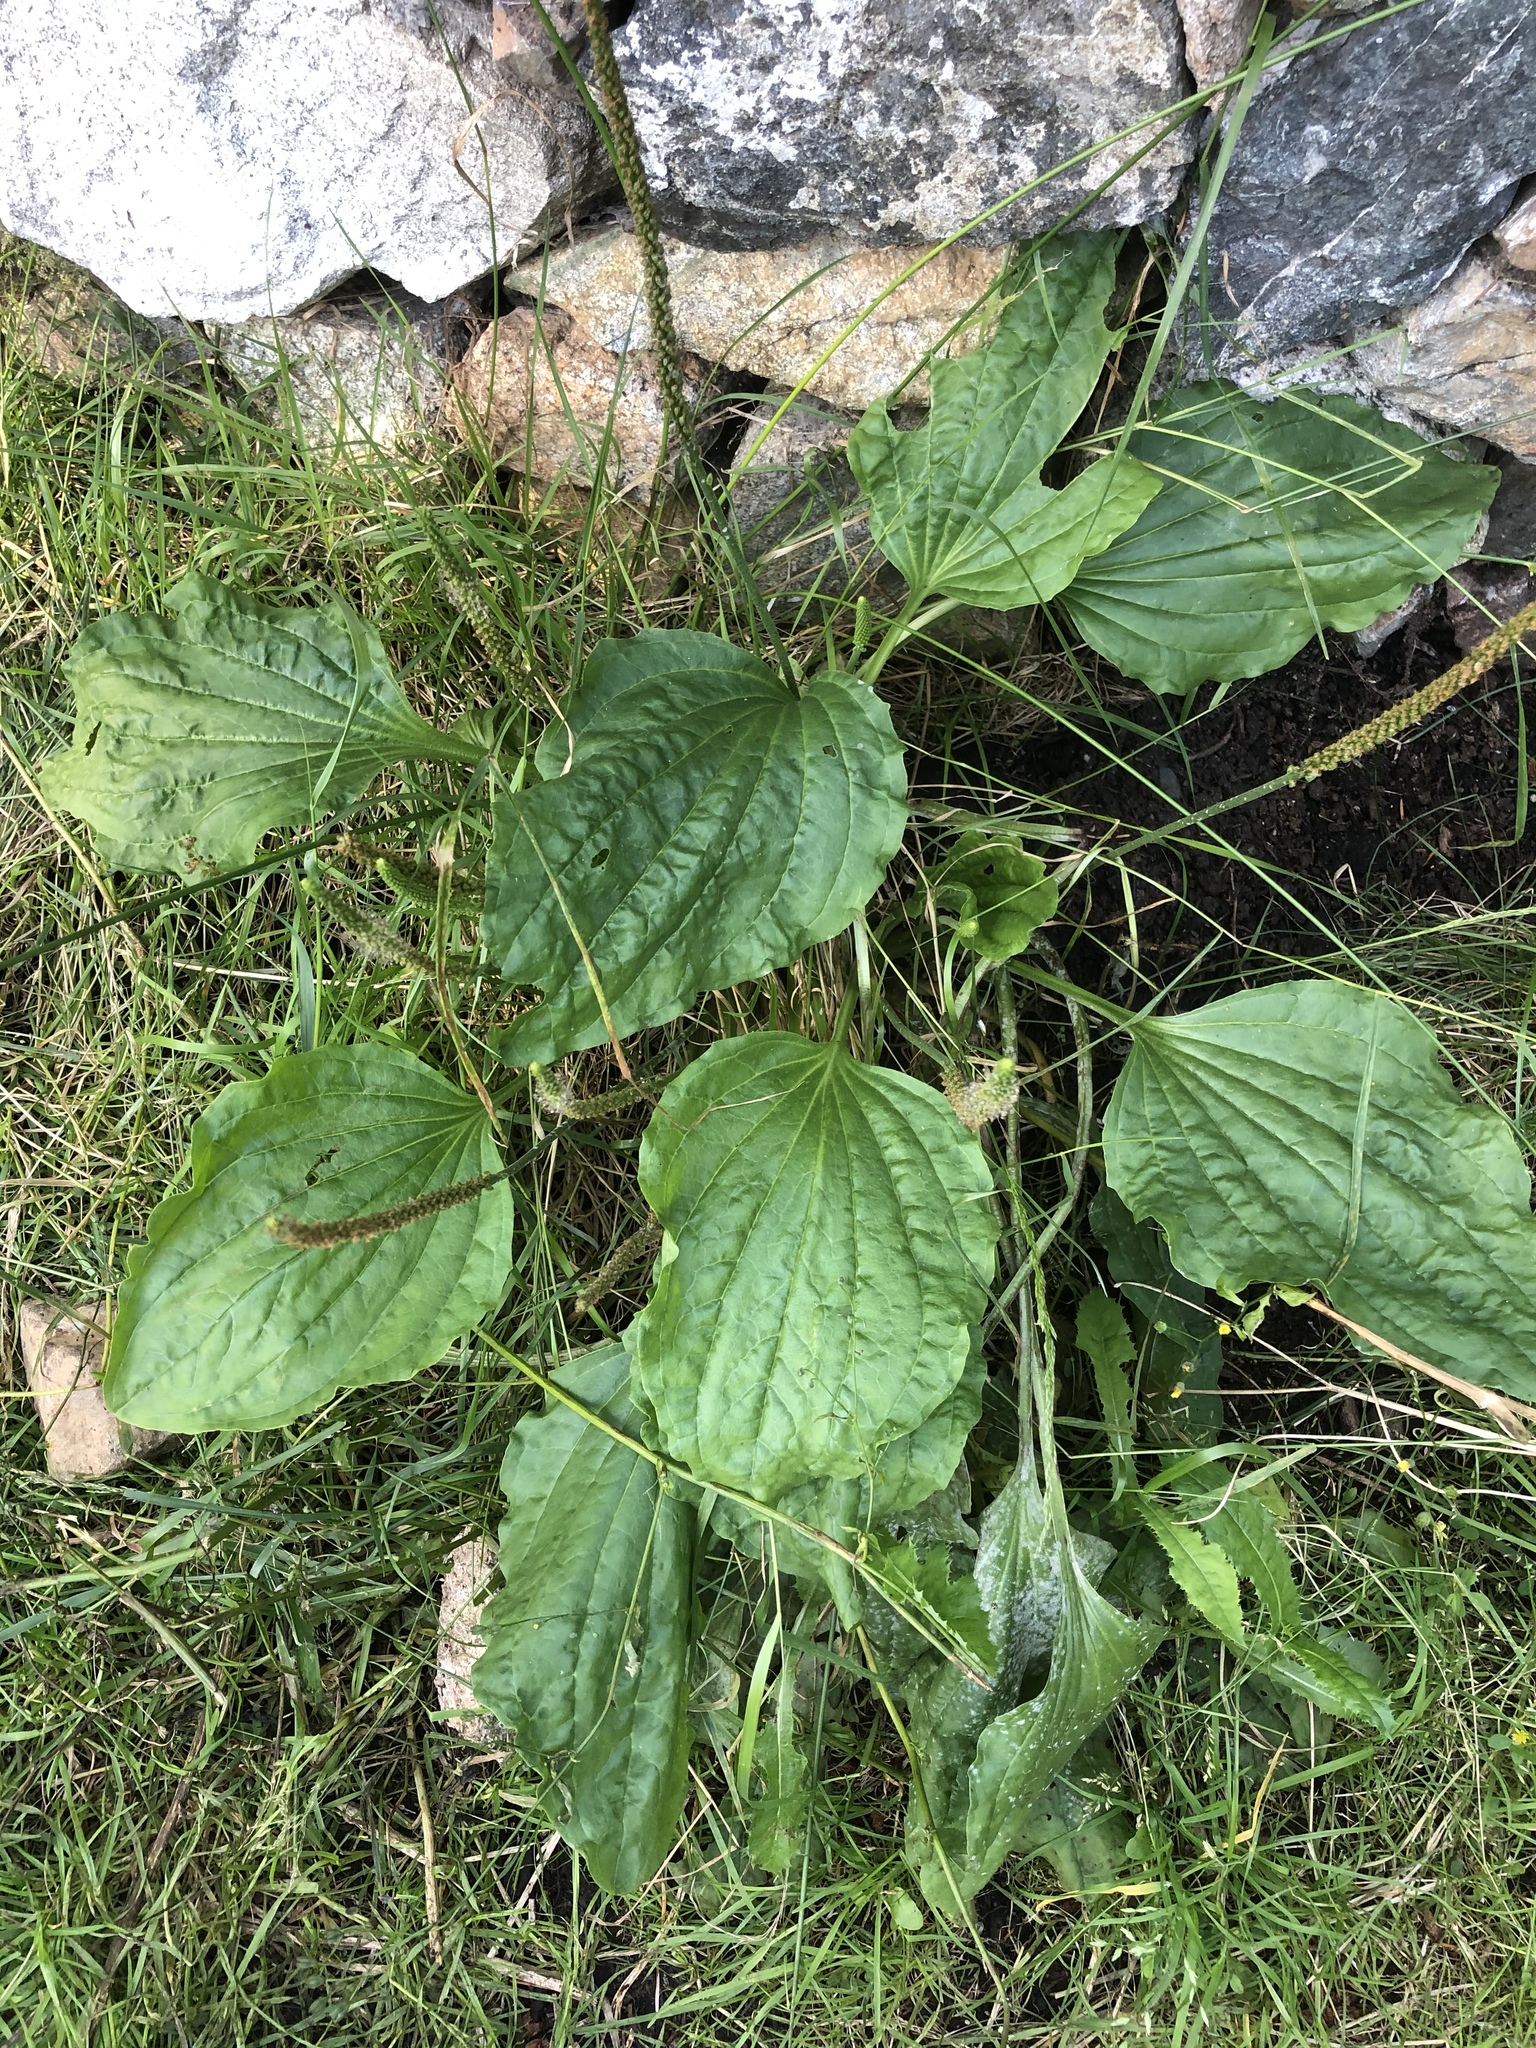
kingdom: Plantae
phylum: Tracheophyta
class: Magnoliopsida
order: Lamiales
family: Plantaginaceae
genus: Plantago
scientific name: Plantago major
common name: Common plantain
